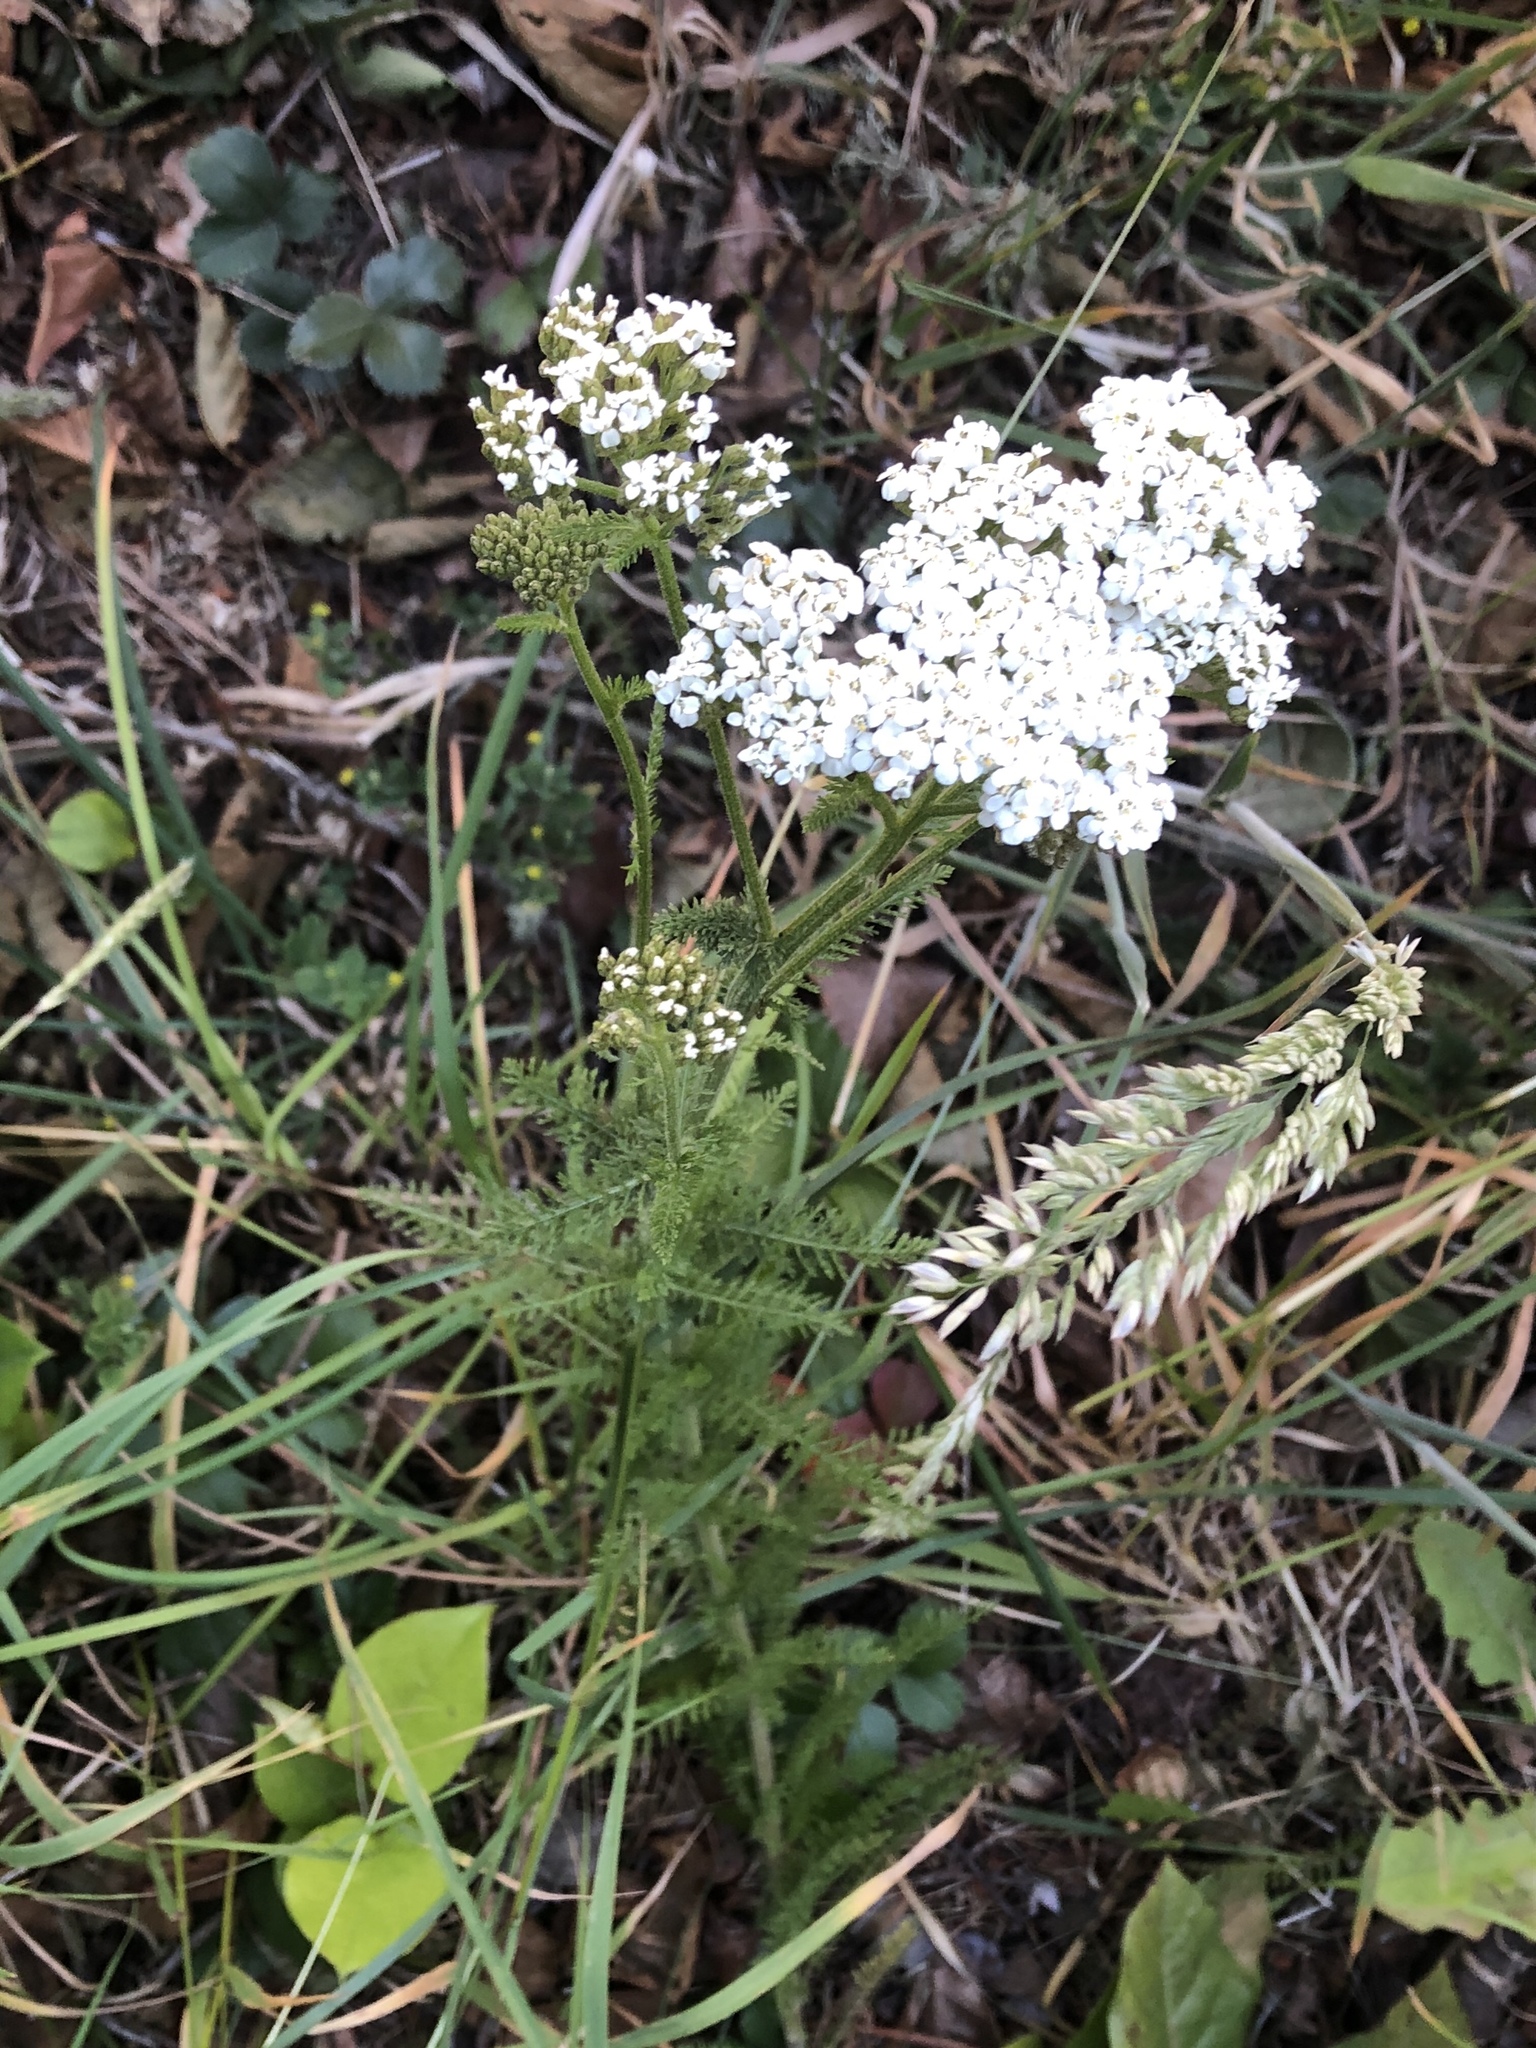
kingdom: Plantae
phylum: Tracheophyta
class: Magnoliopsida
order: Asterales
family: Asteraceae
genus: Achillea
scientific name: Achillea millefolium
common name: Yarrow
